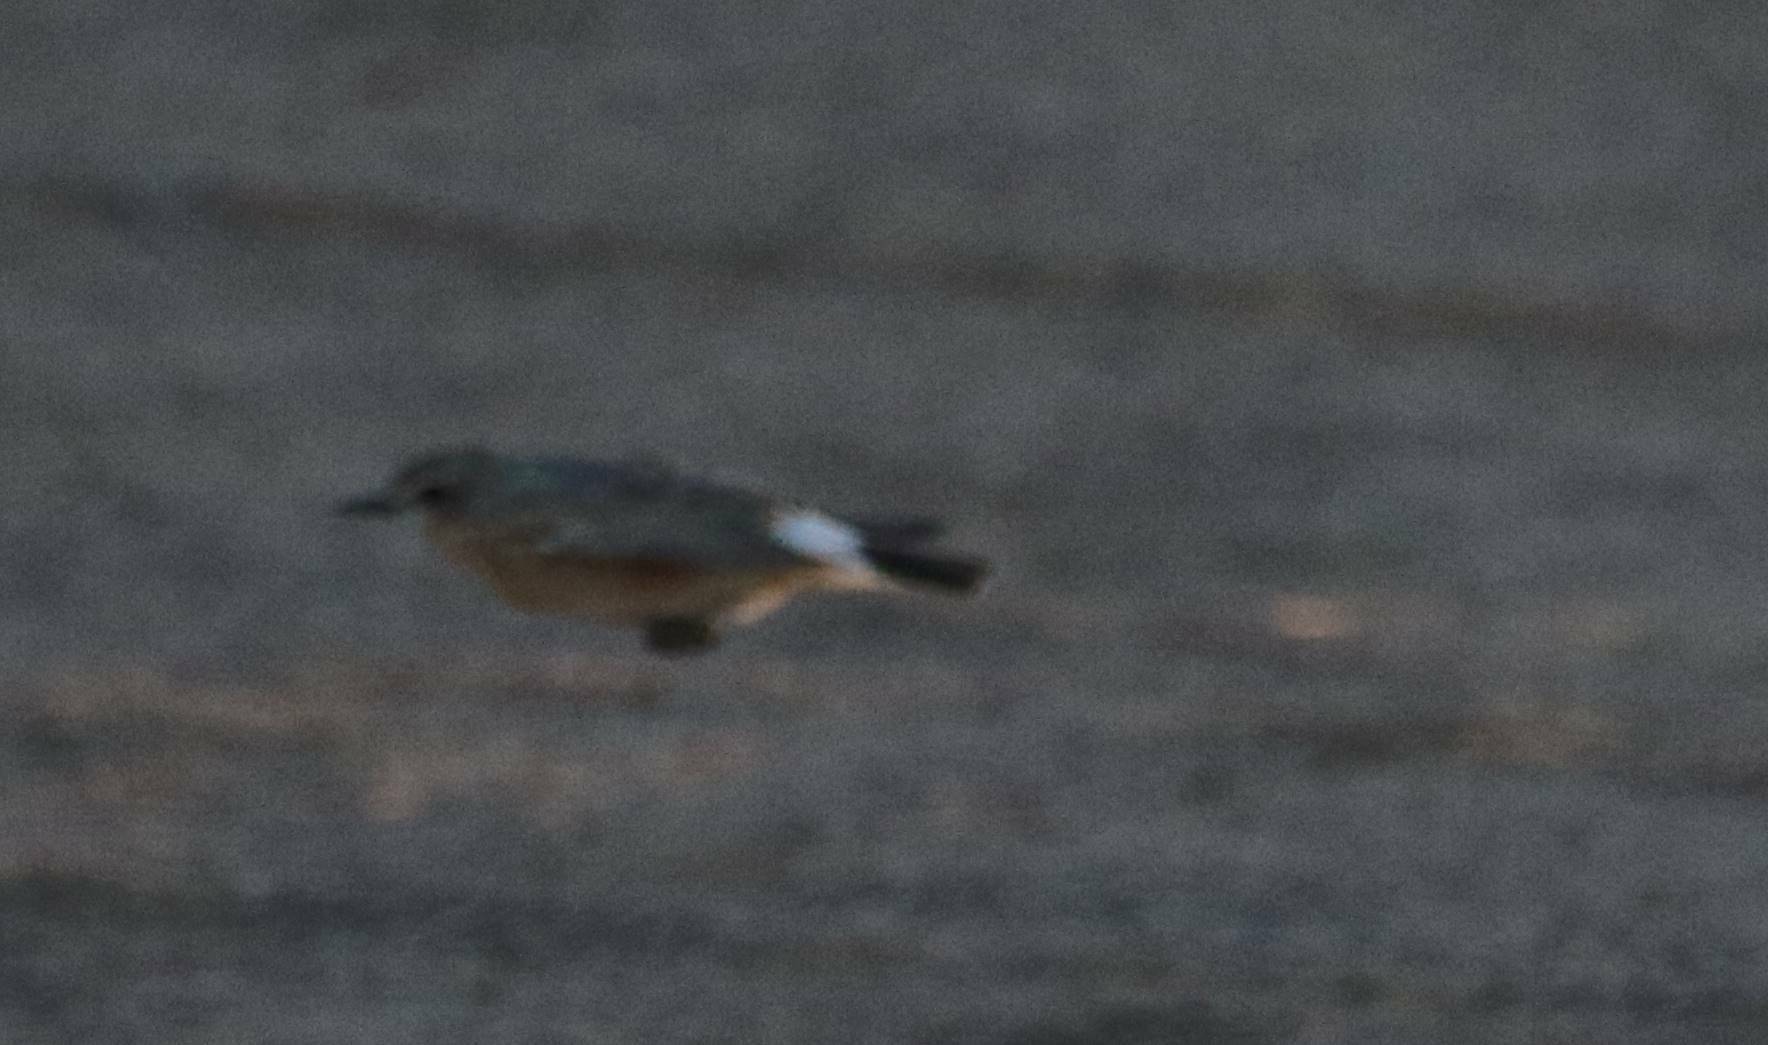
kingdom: Animalia
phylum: Chordata
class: Aves
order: Passeriformes
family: Muscicapidae
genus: Oenanthe
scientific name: Oenanthe isabellina
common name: Isabelline wheatear
